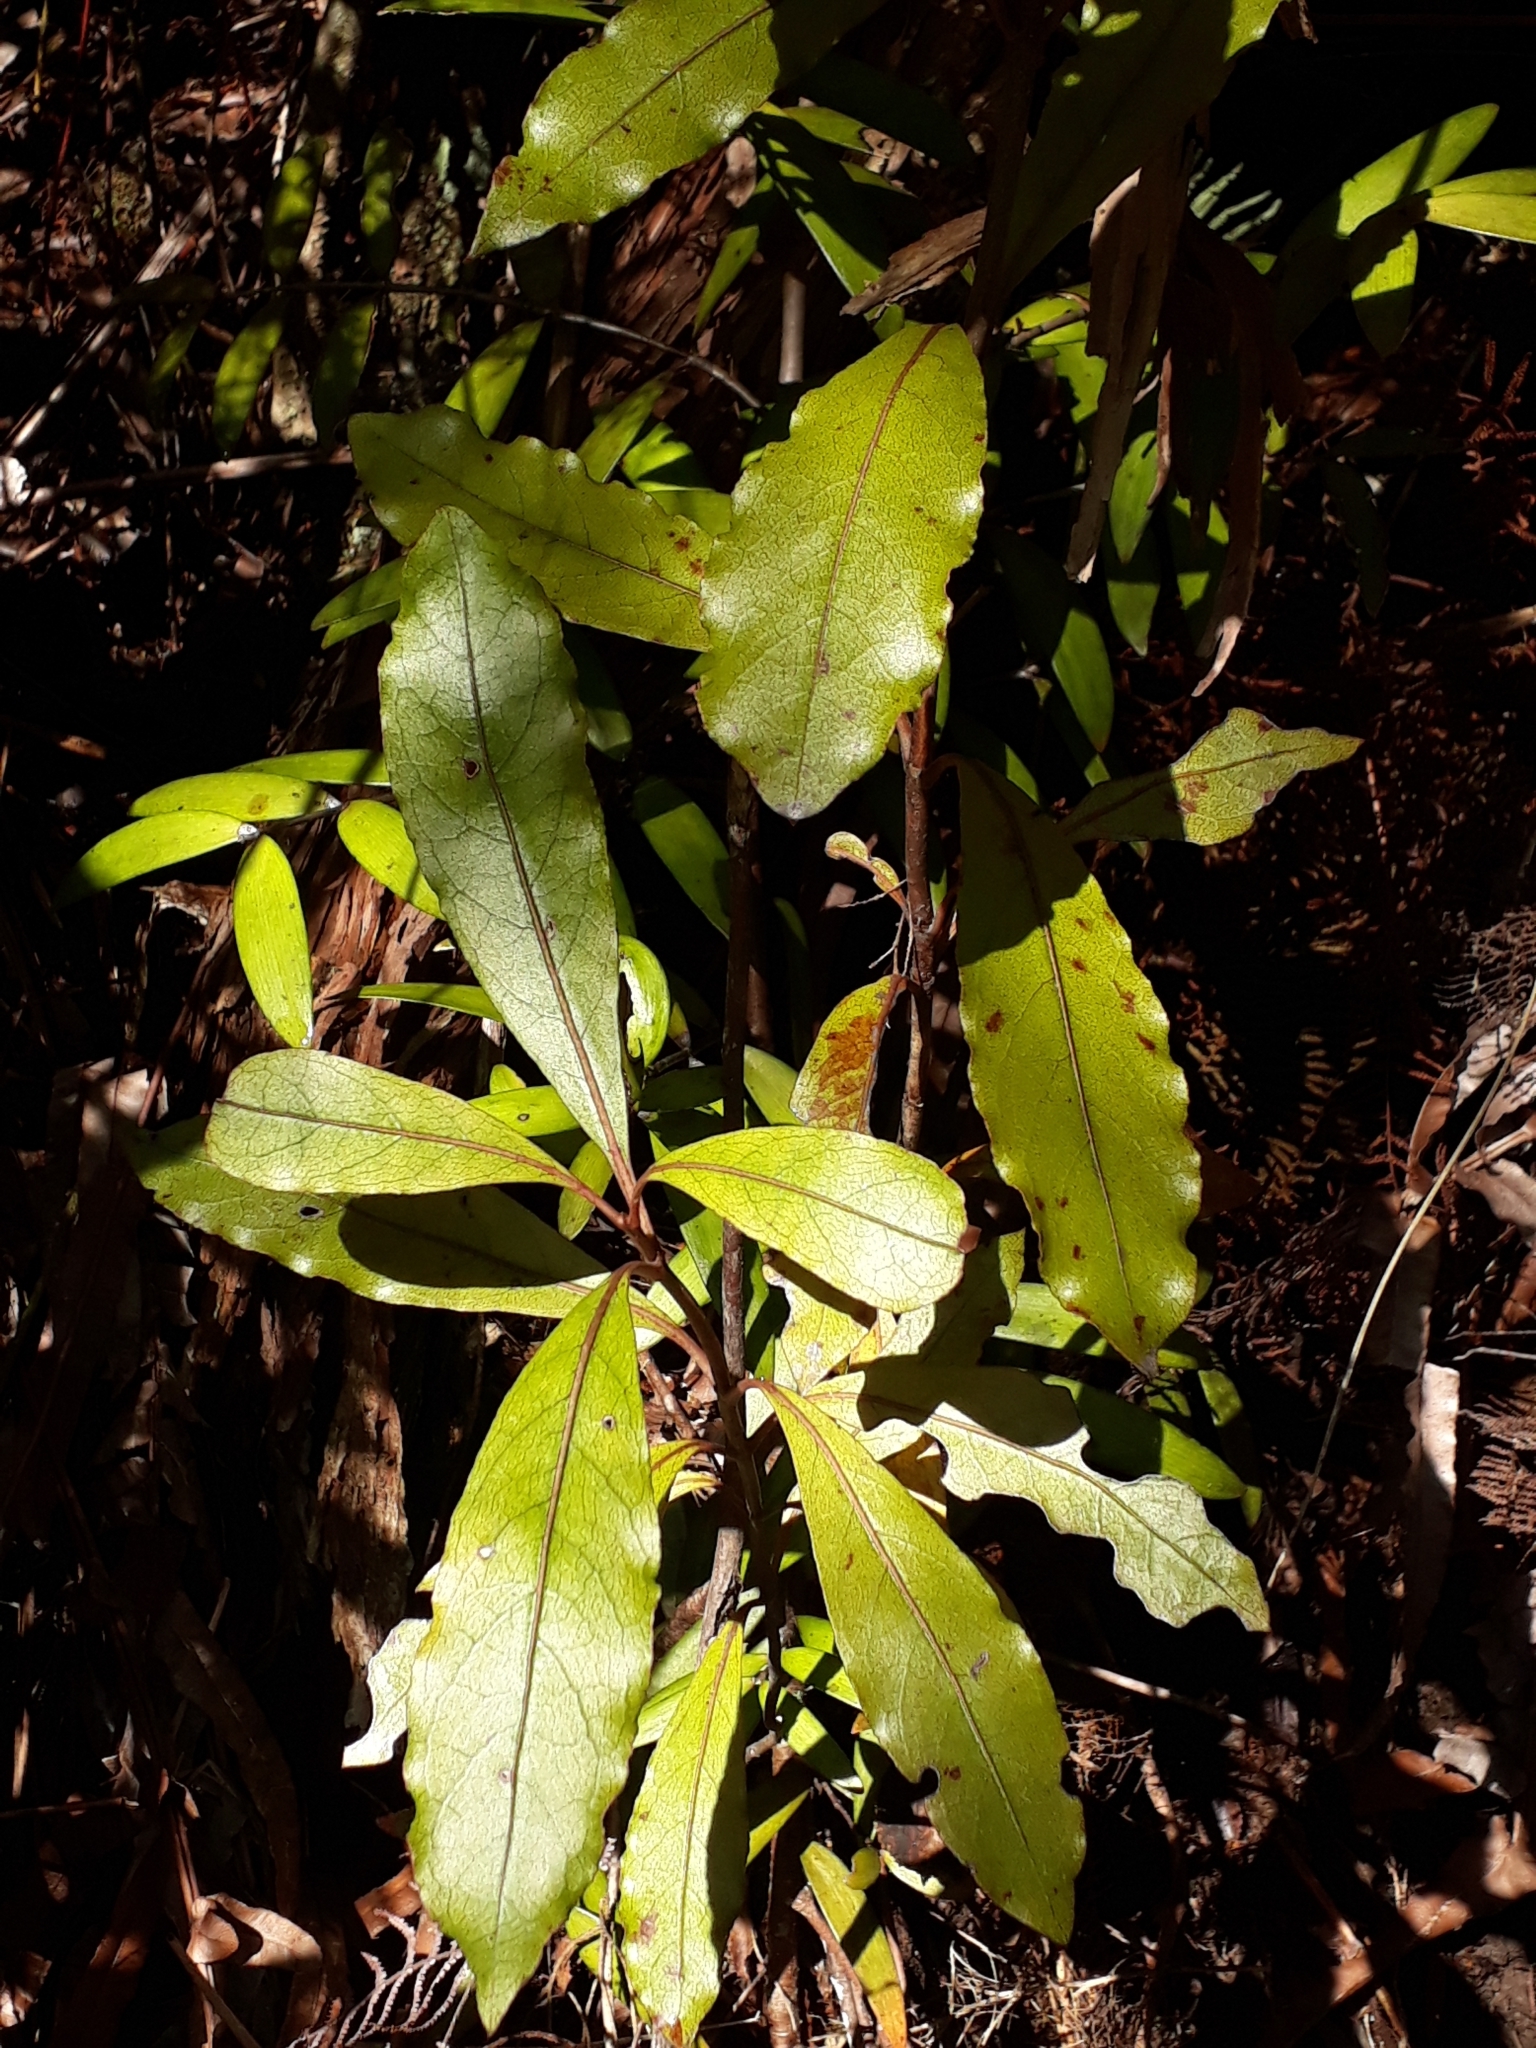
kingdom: Plantae
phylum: Tracheophyta
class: Magnoliopsida
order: Gentianales
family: Rubiaceae
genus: Coprosma
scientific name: Coprosma dodonaeifolia
